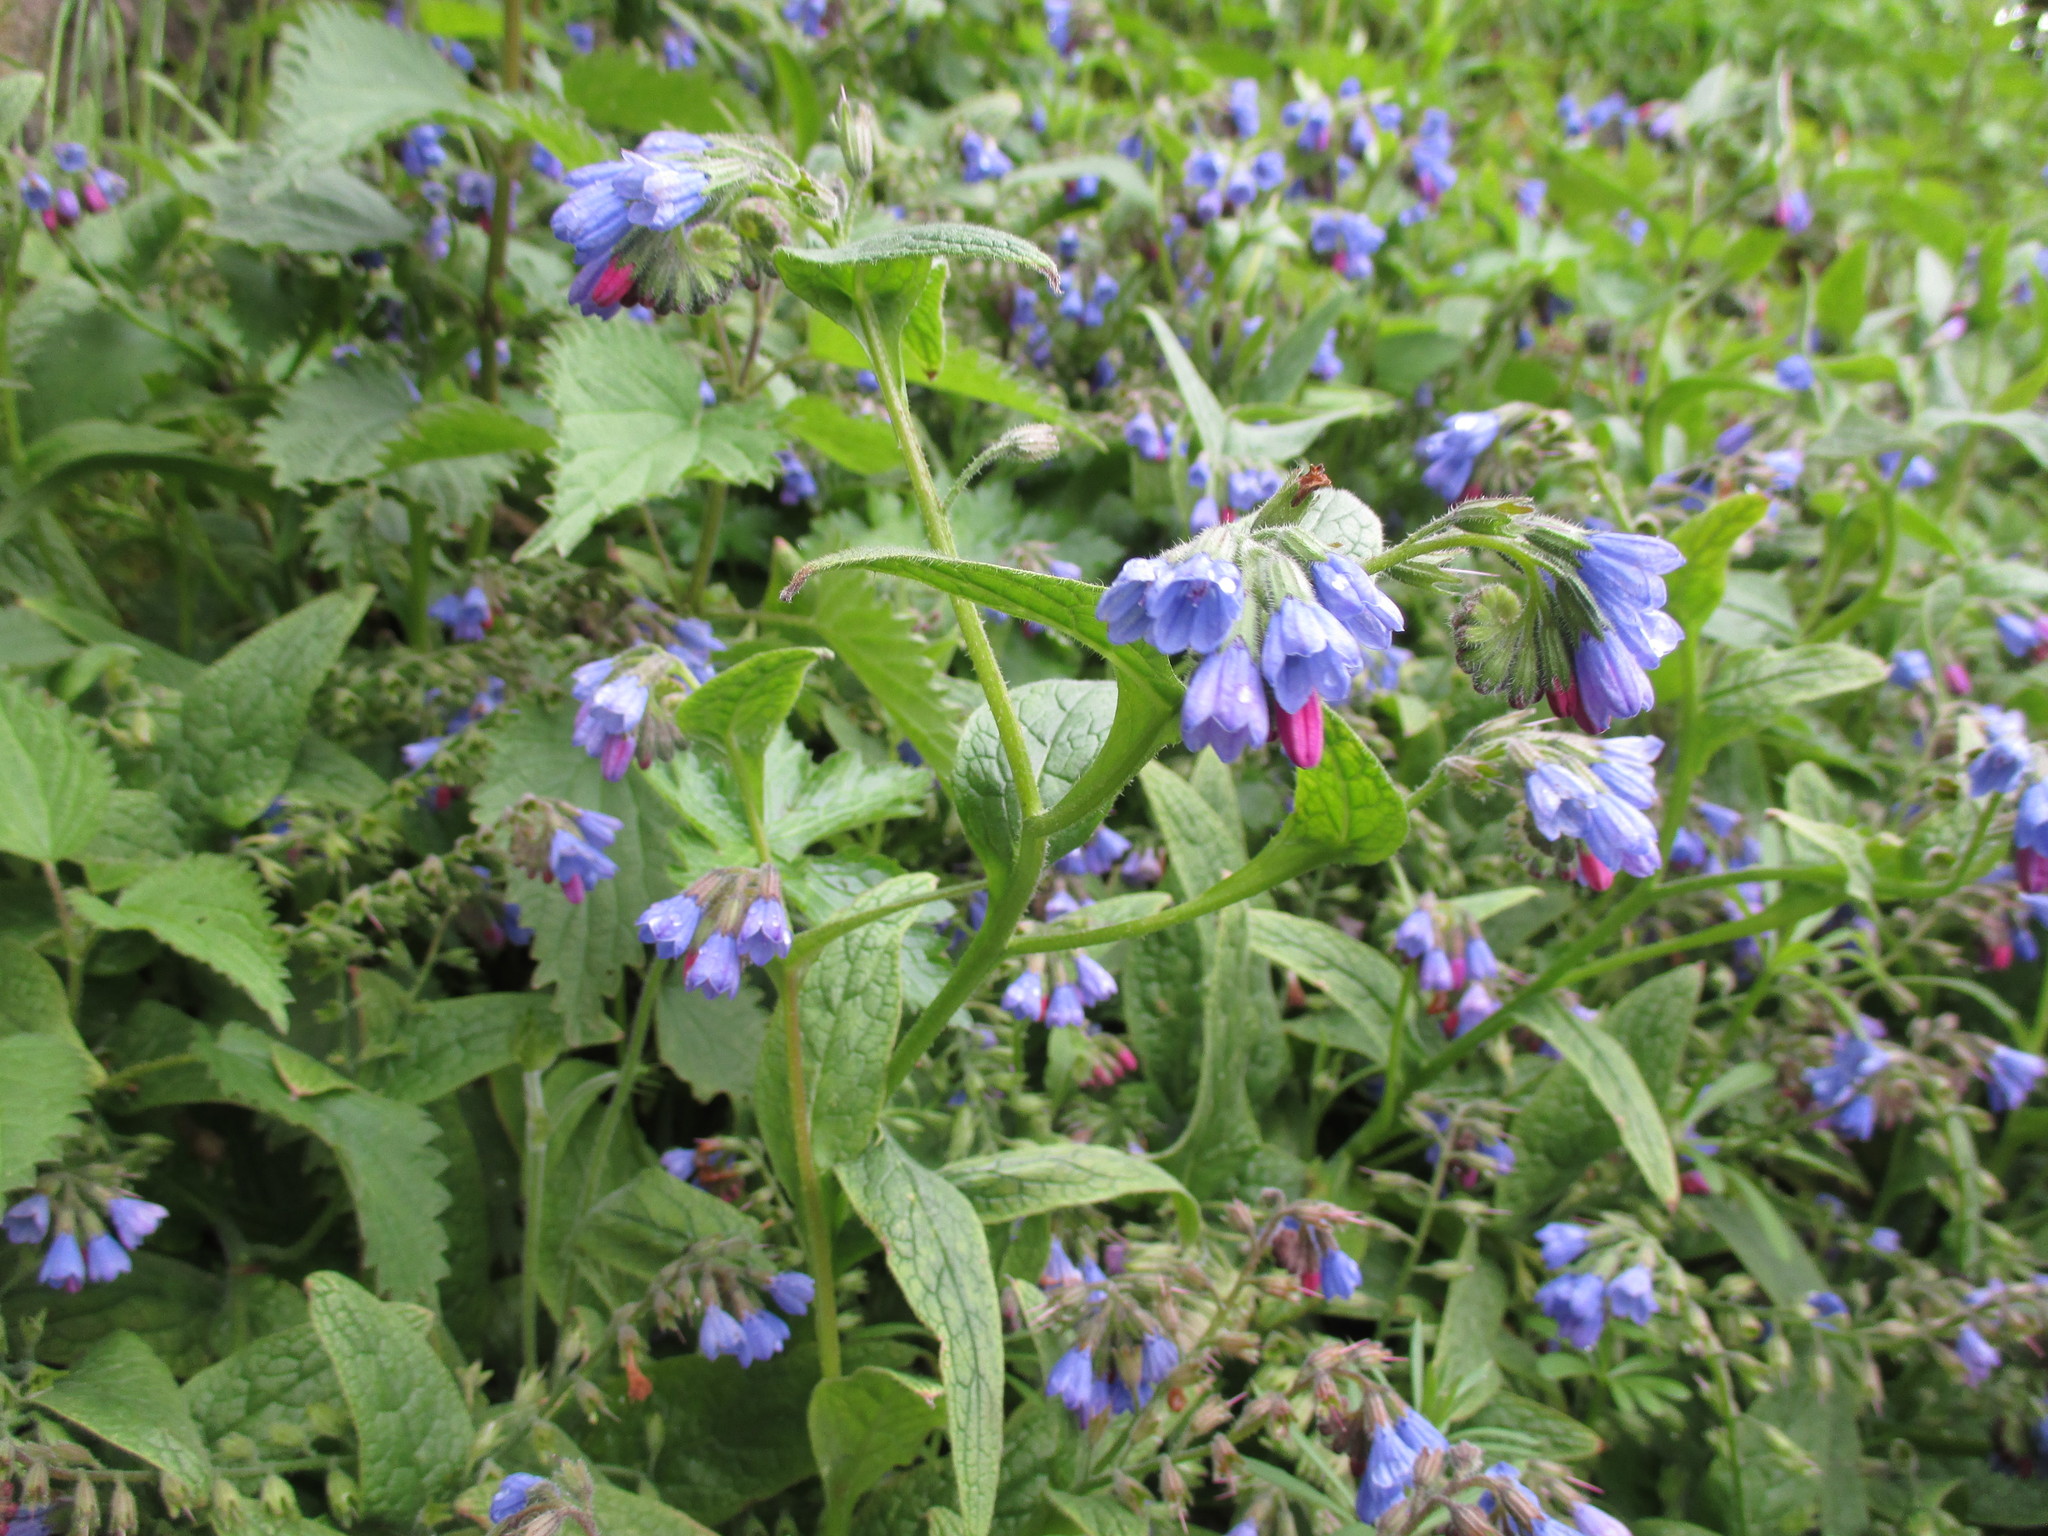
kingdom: Plantae
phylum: Tracheophyta
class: Magnoliopsida
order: Boraginales
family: Boraginaceae
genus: Symphytum
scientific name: Symphytum caucasicum
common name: Caucasian comfrey
